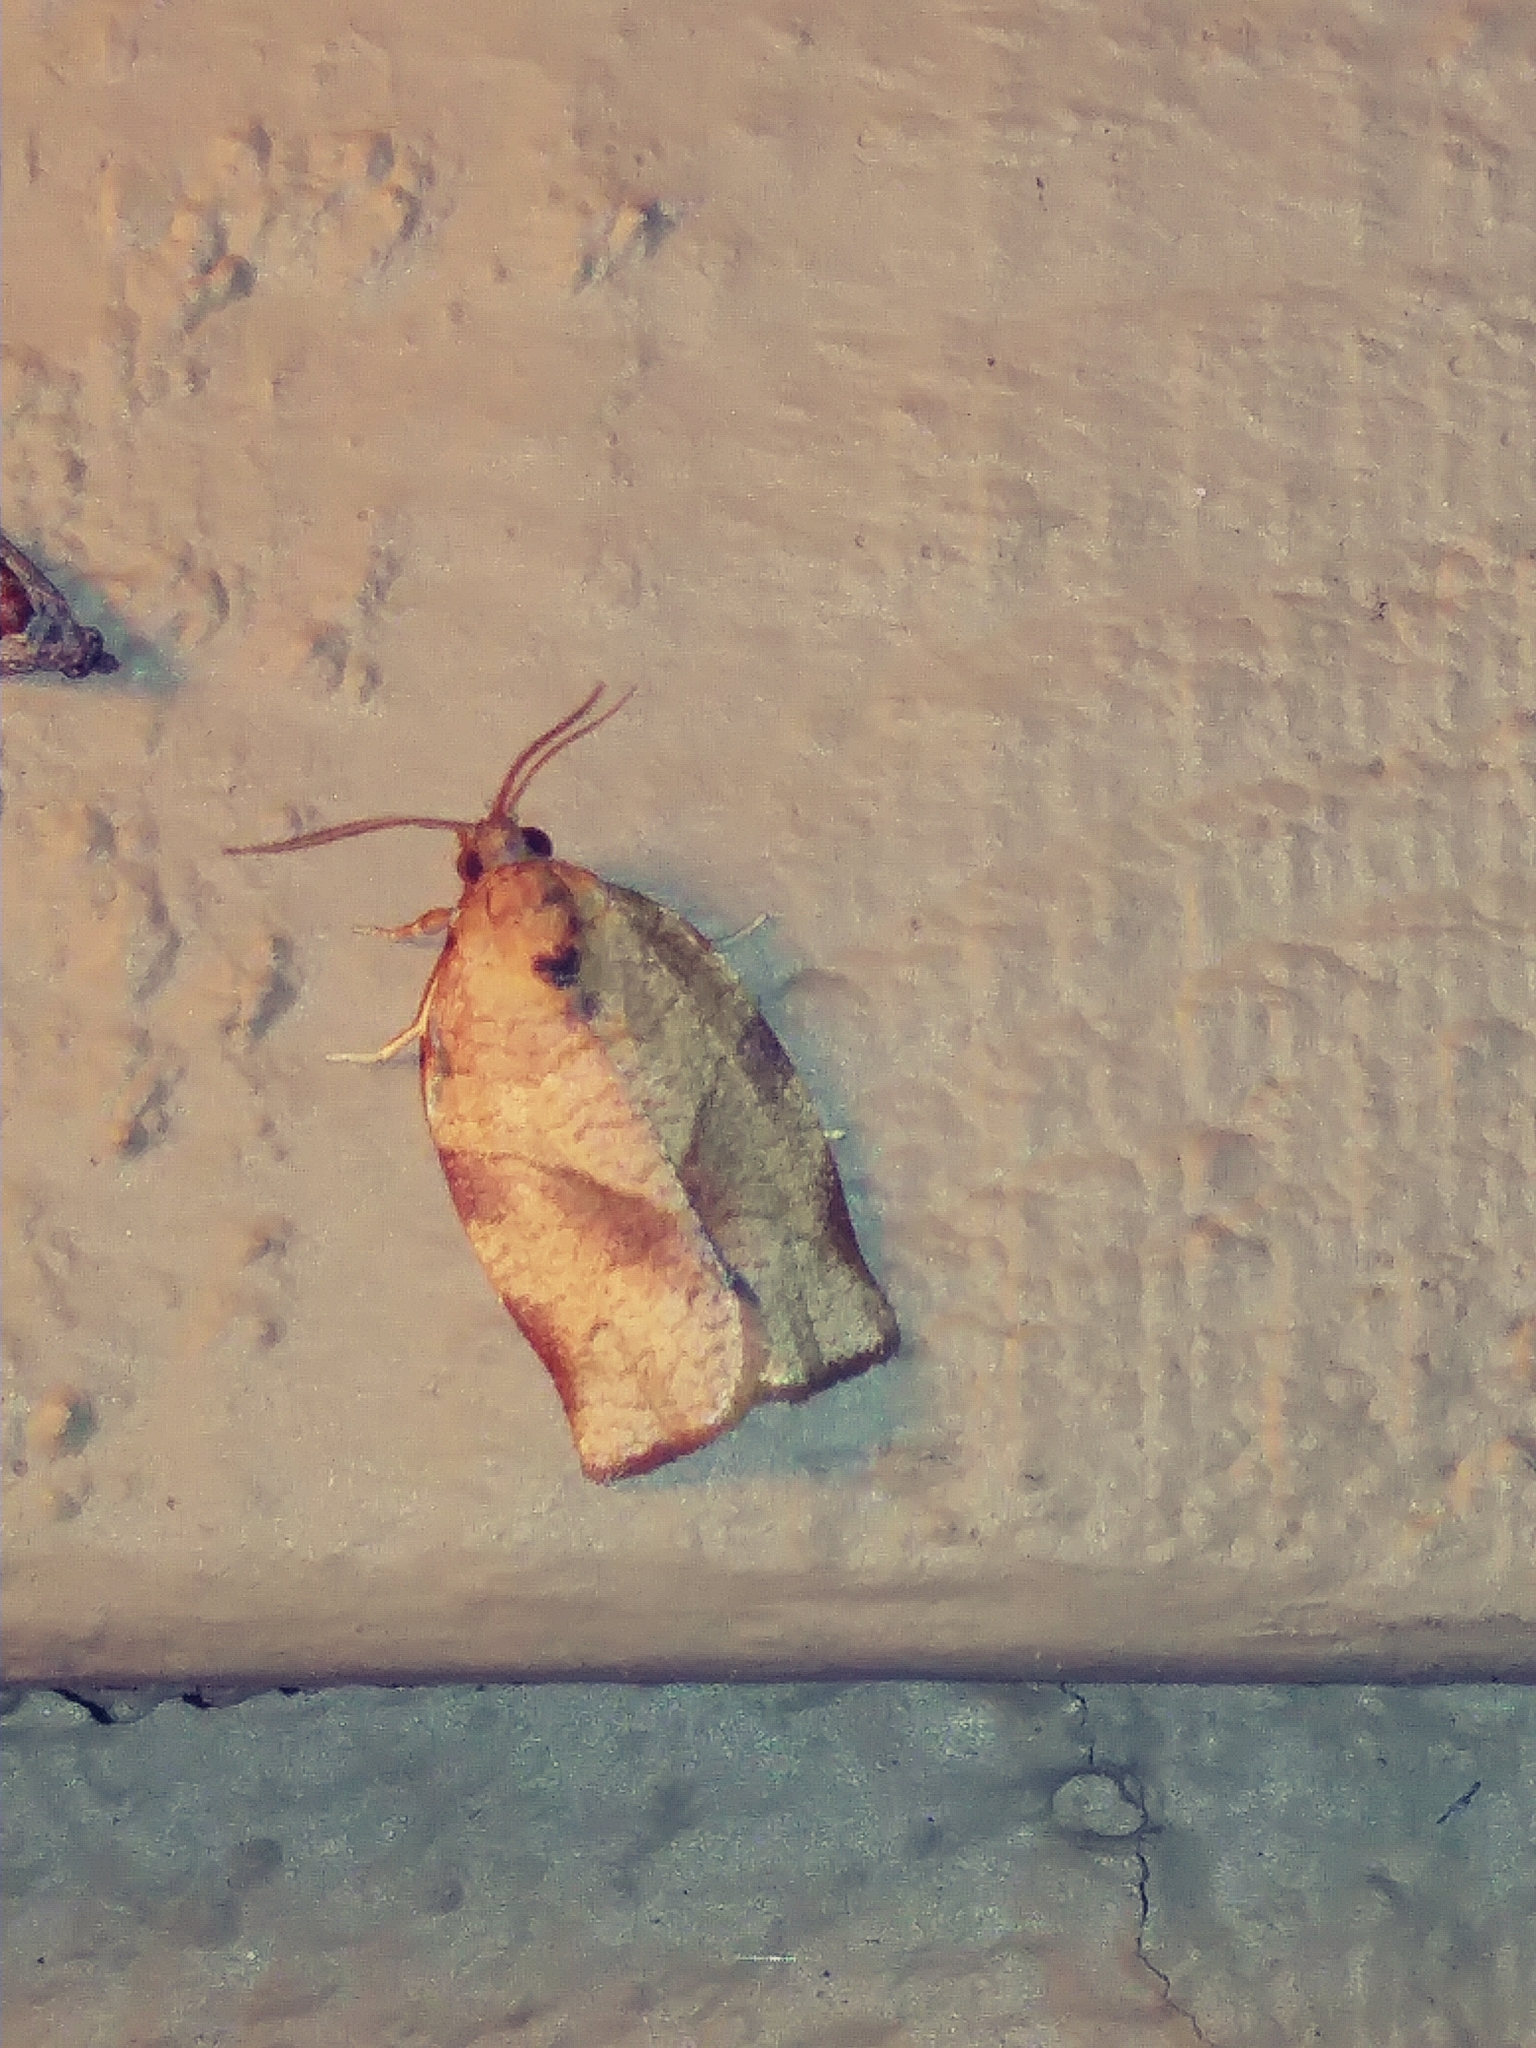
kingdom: Animalia
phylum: Arthropoda
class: Insecta
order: Lepidoptera
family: Tortricidae
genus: Choristoneura
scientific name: Choristoneura rosaceana
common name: Oblique-banded leafroller moth
